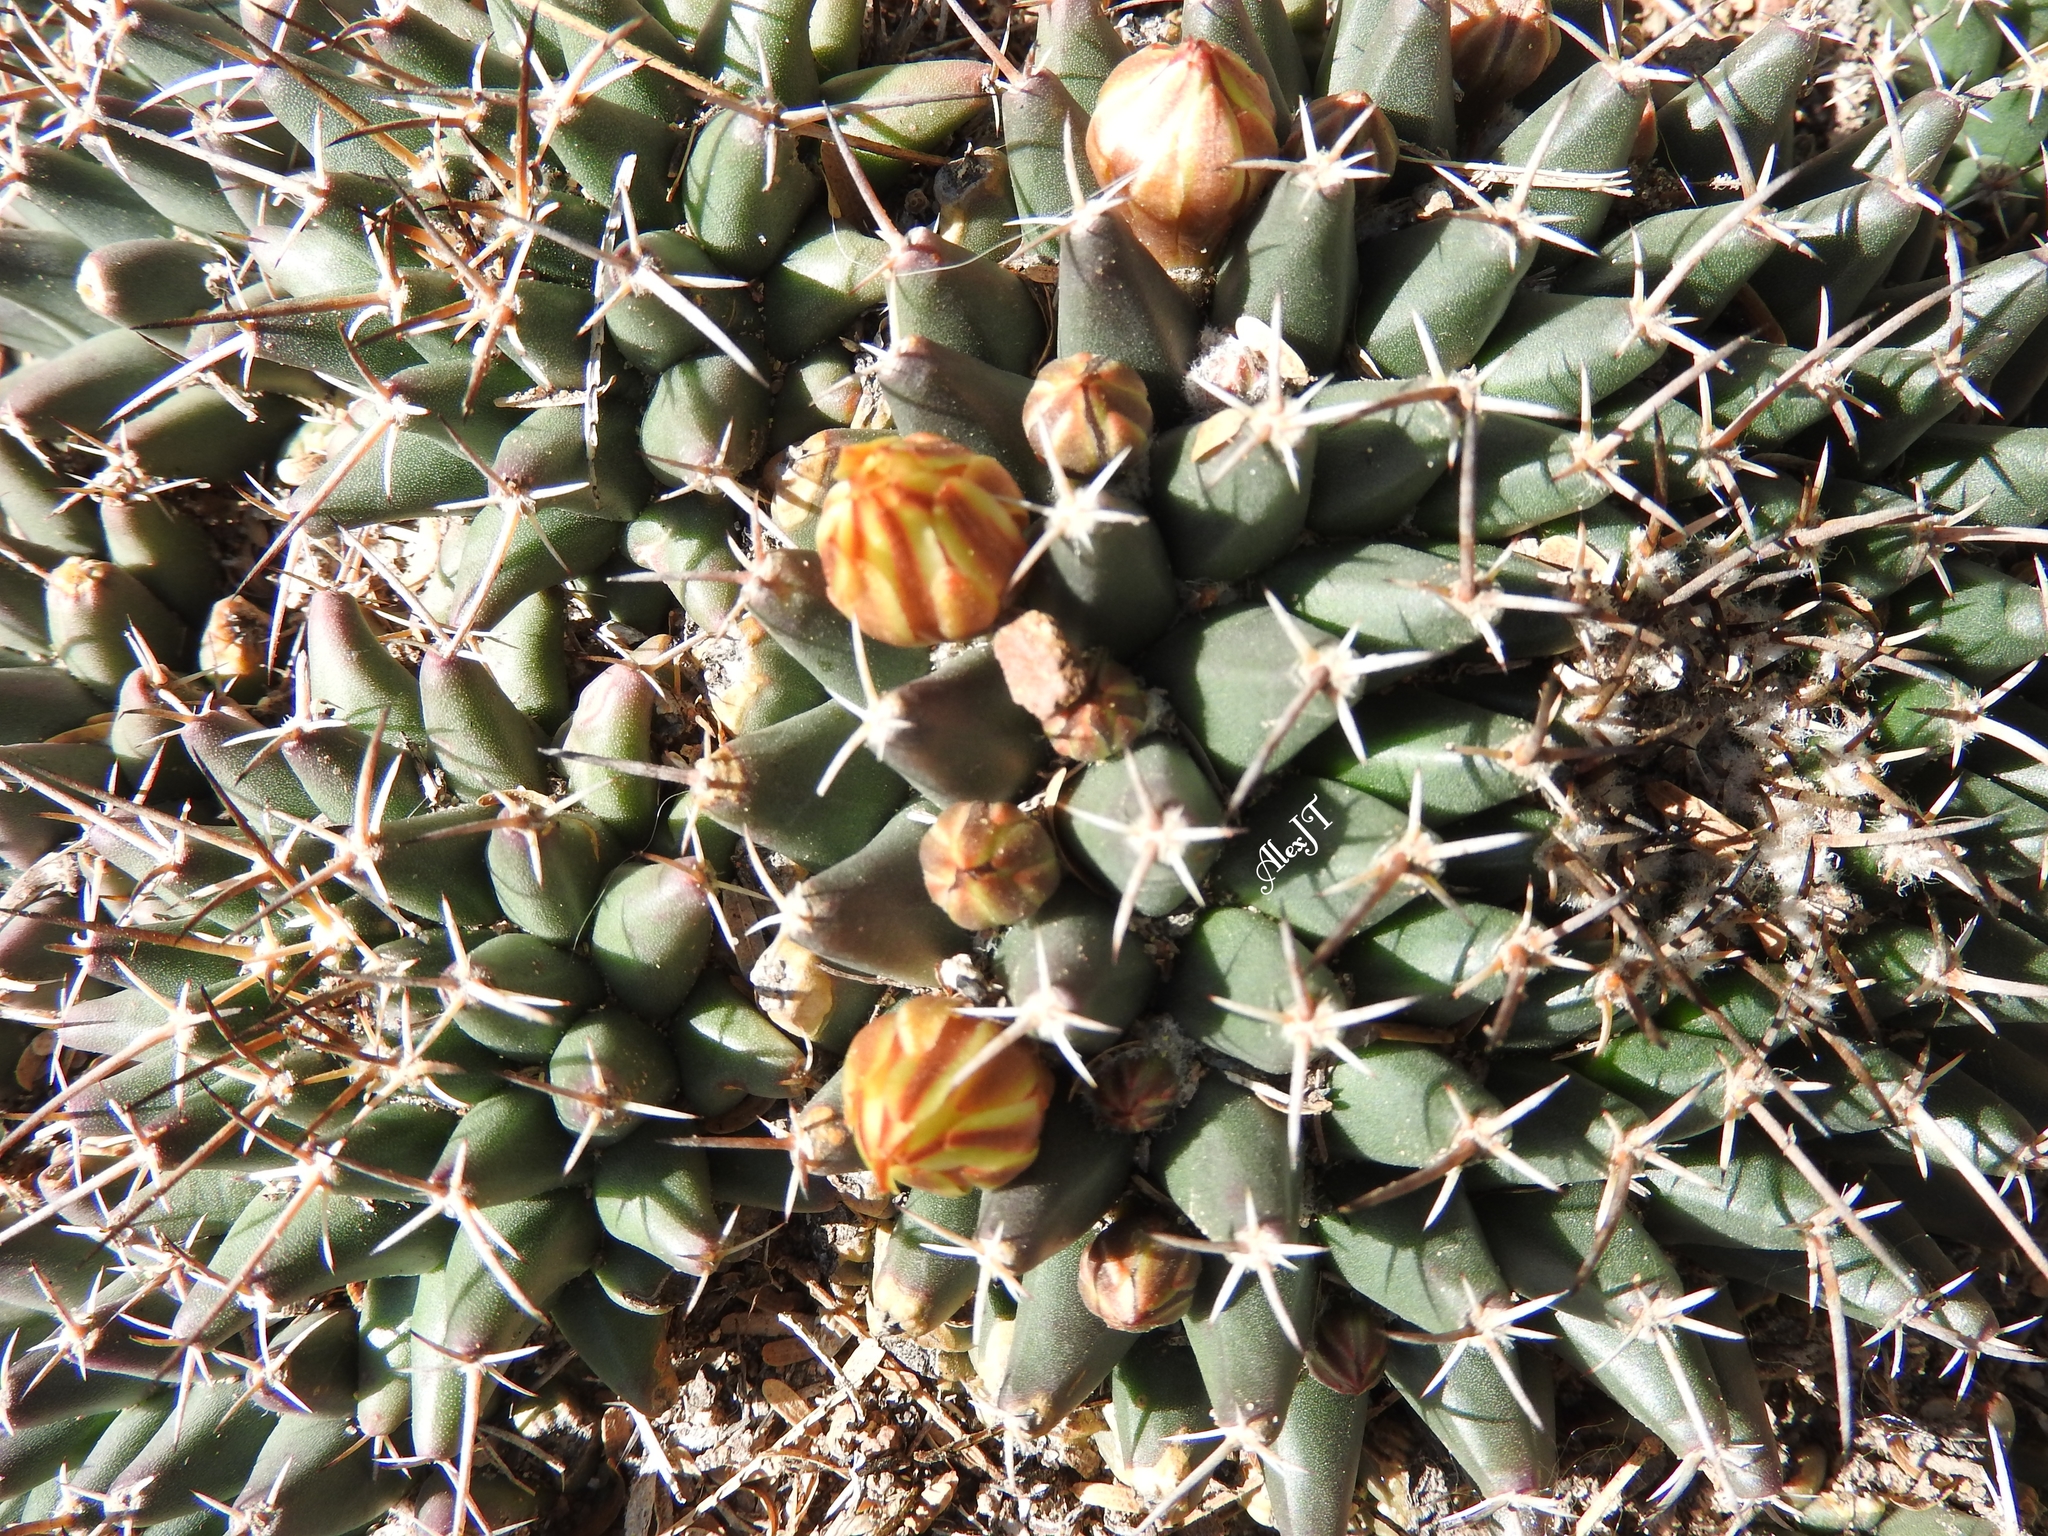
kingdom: Plantae
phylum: Tracheophyta
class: Magnoliopsida
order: Caryophyllales
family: Cactaceae
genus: Mammillaria
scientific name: Mammillaria magnimamma
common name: Mexican pincushion
